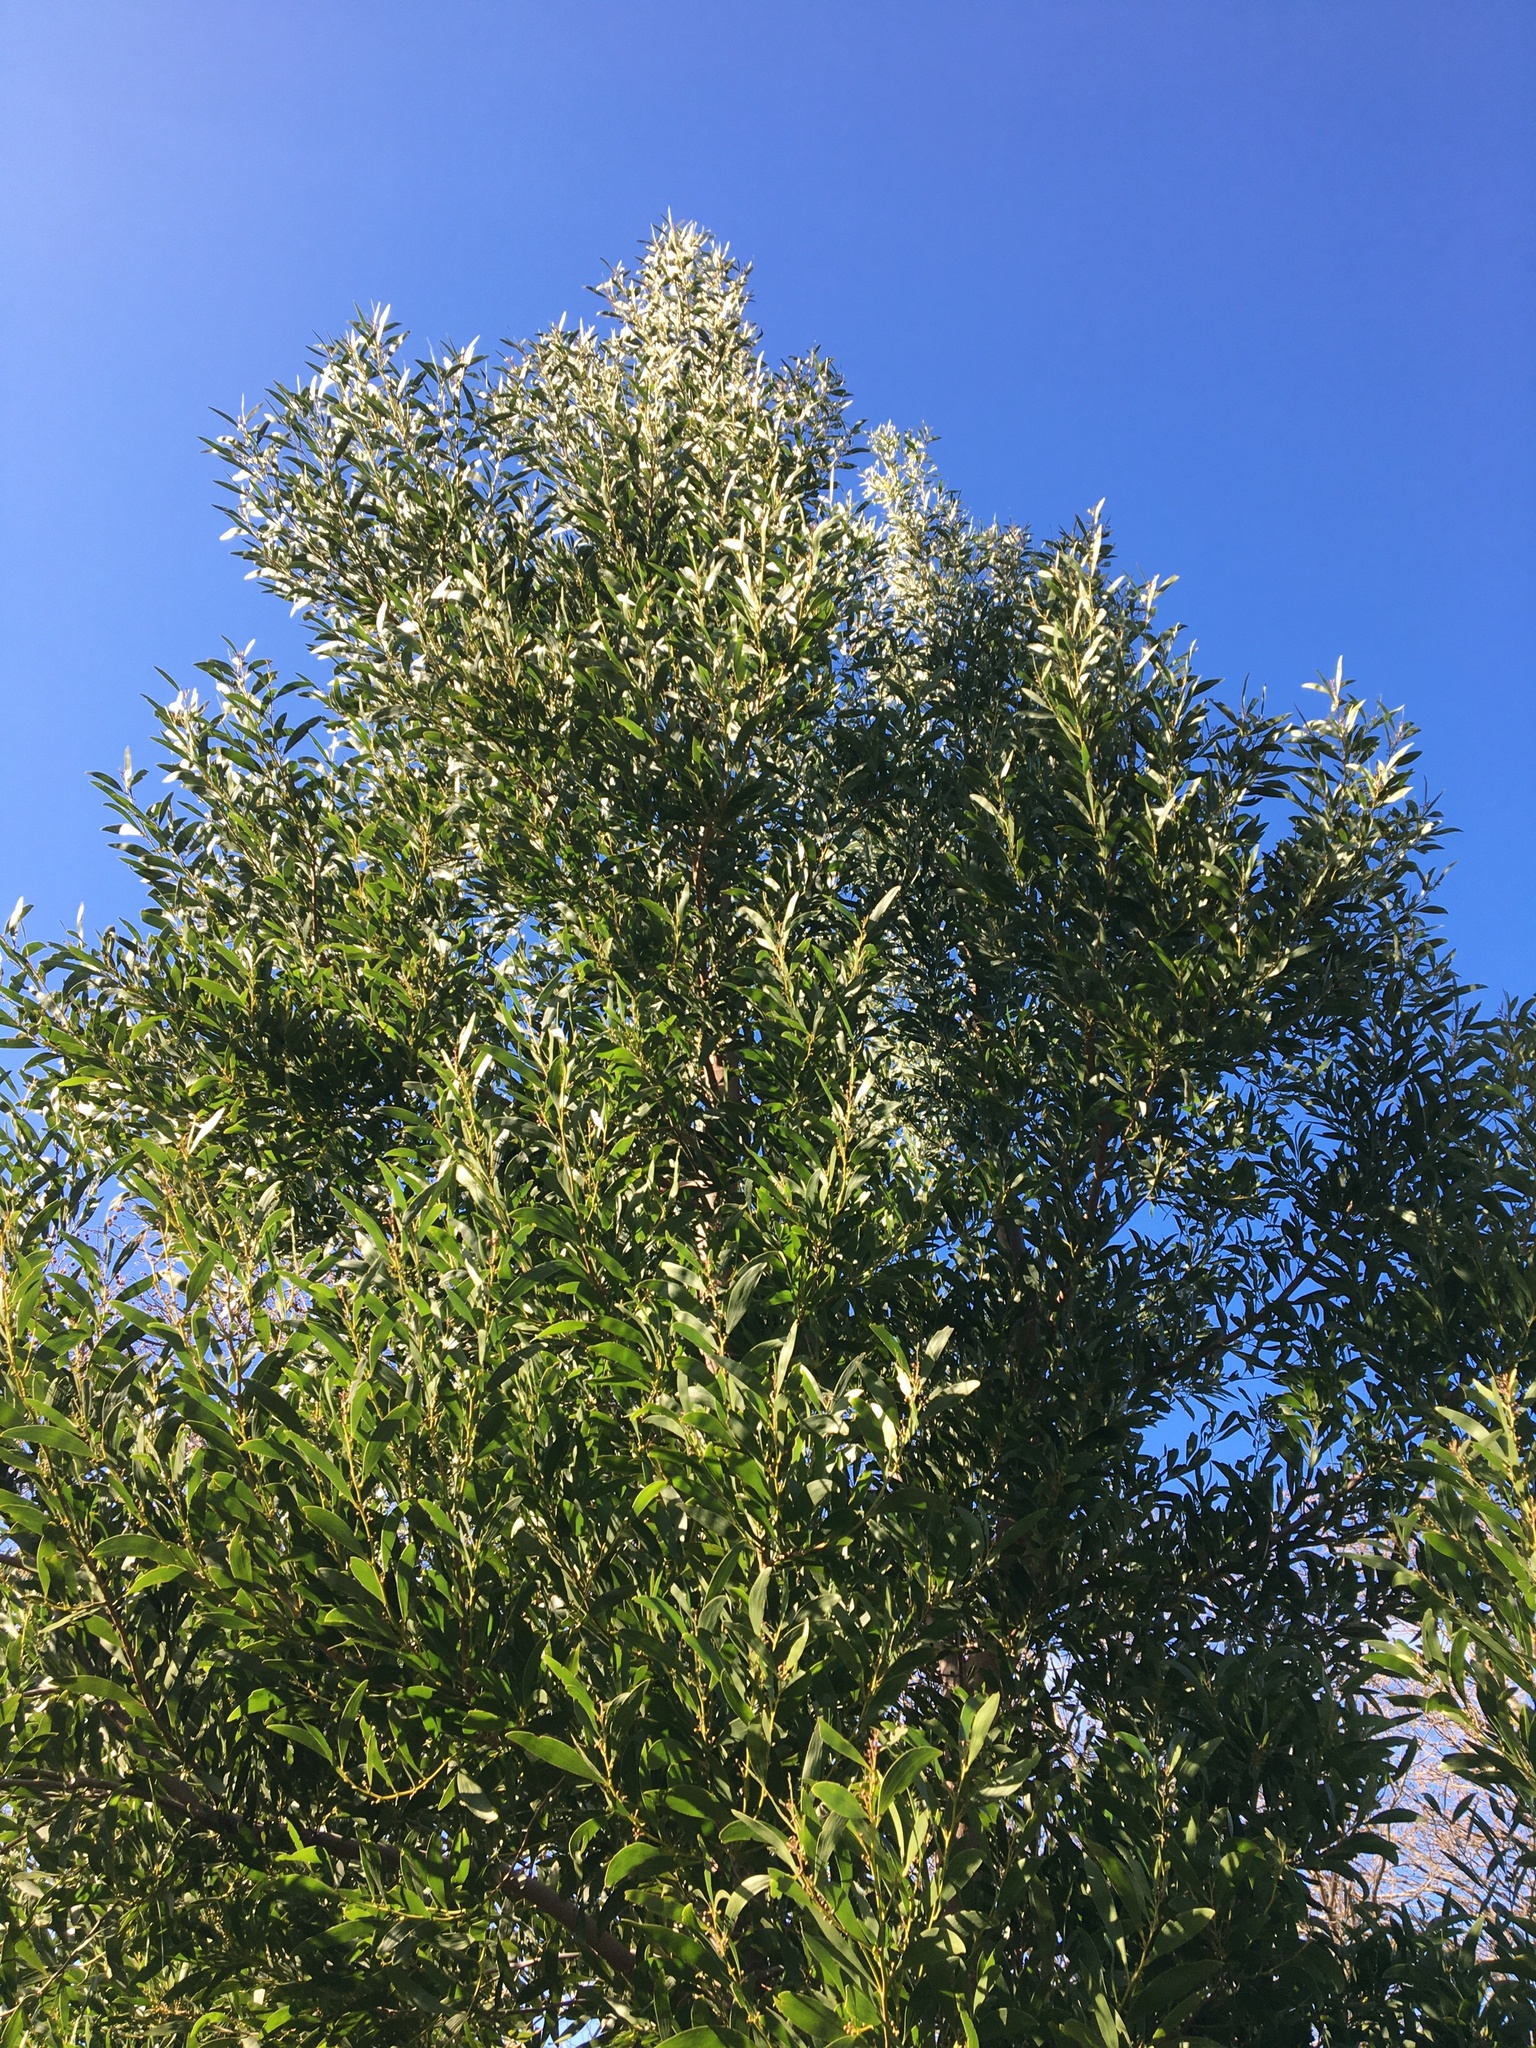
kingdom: Plantae
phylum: Tracheophyta
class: Magnoliopsida
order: Fabales
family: Fabaceae
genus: Acacia
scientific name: Acacia melanoxylon
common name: Blackwood
